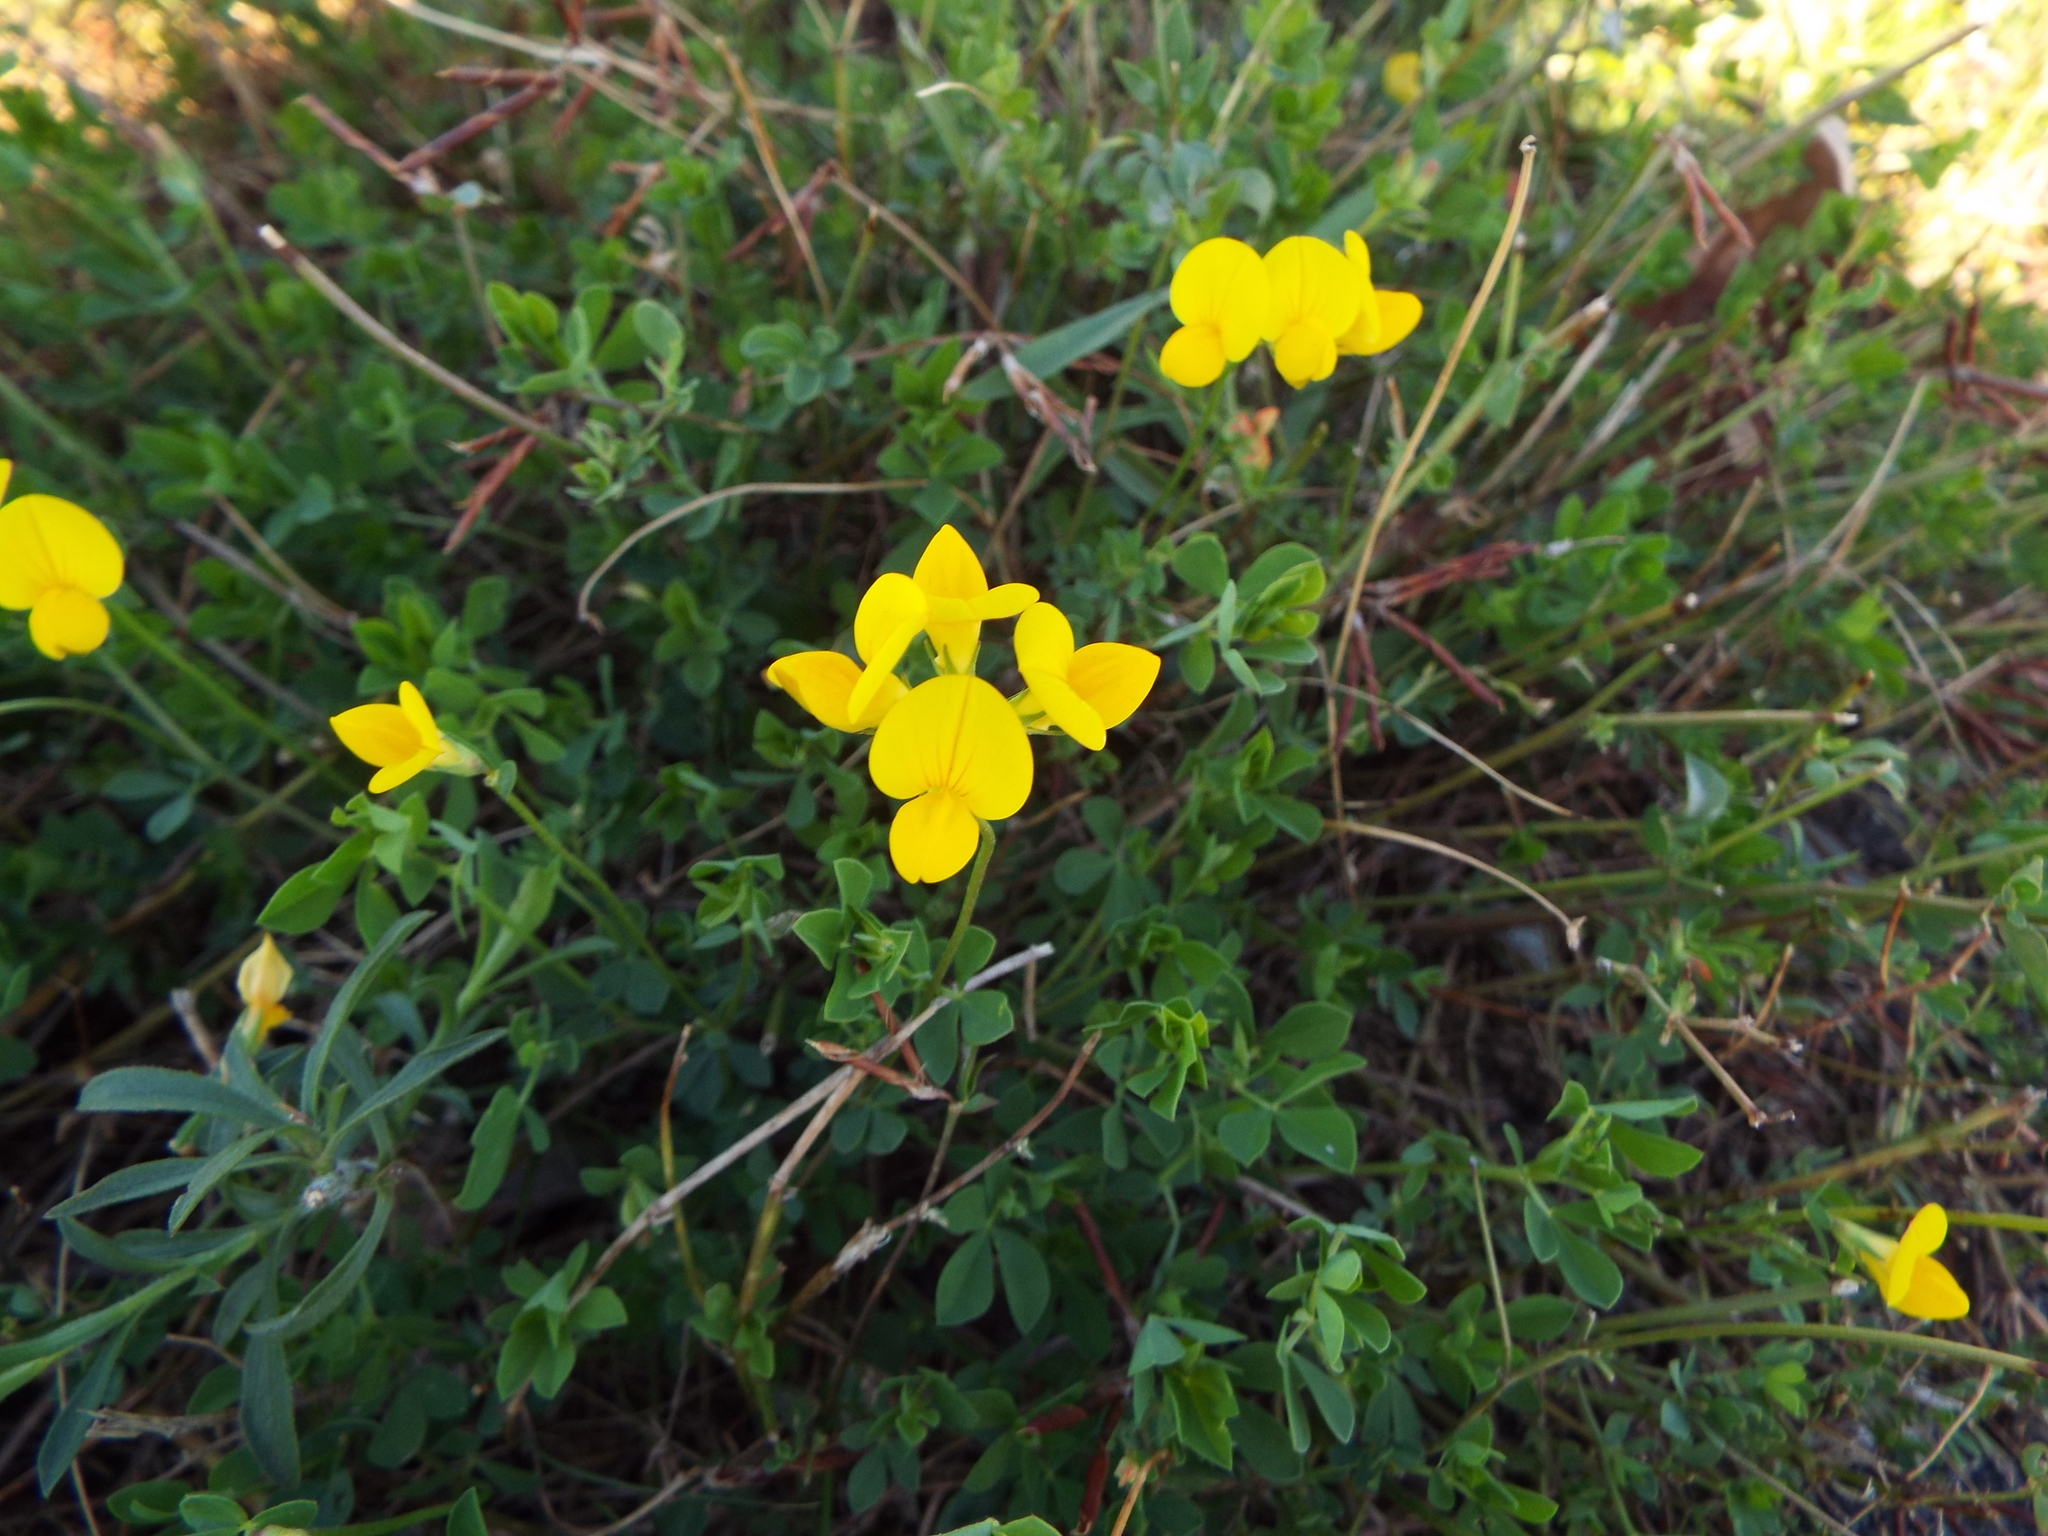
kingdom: Plantae
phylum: Tracheophyta
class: Magnoliopsida
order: Fabales
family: Fabaceae
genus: Lotus
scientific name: Lotus corniculatus
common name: Common bird's-foot-trefoil
